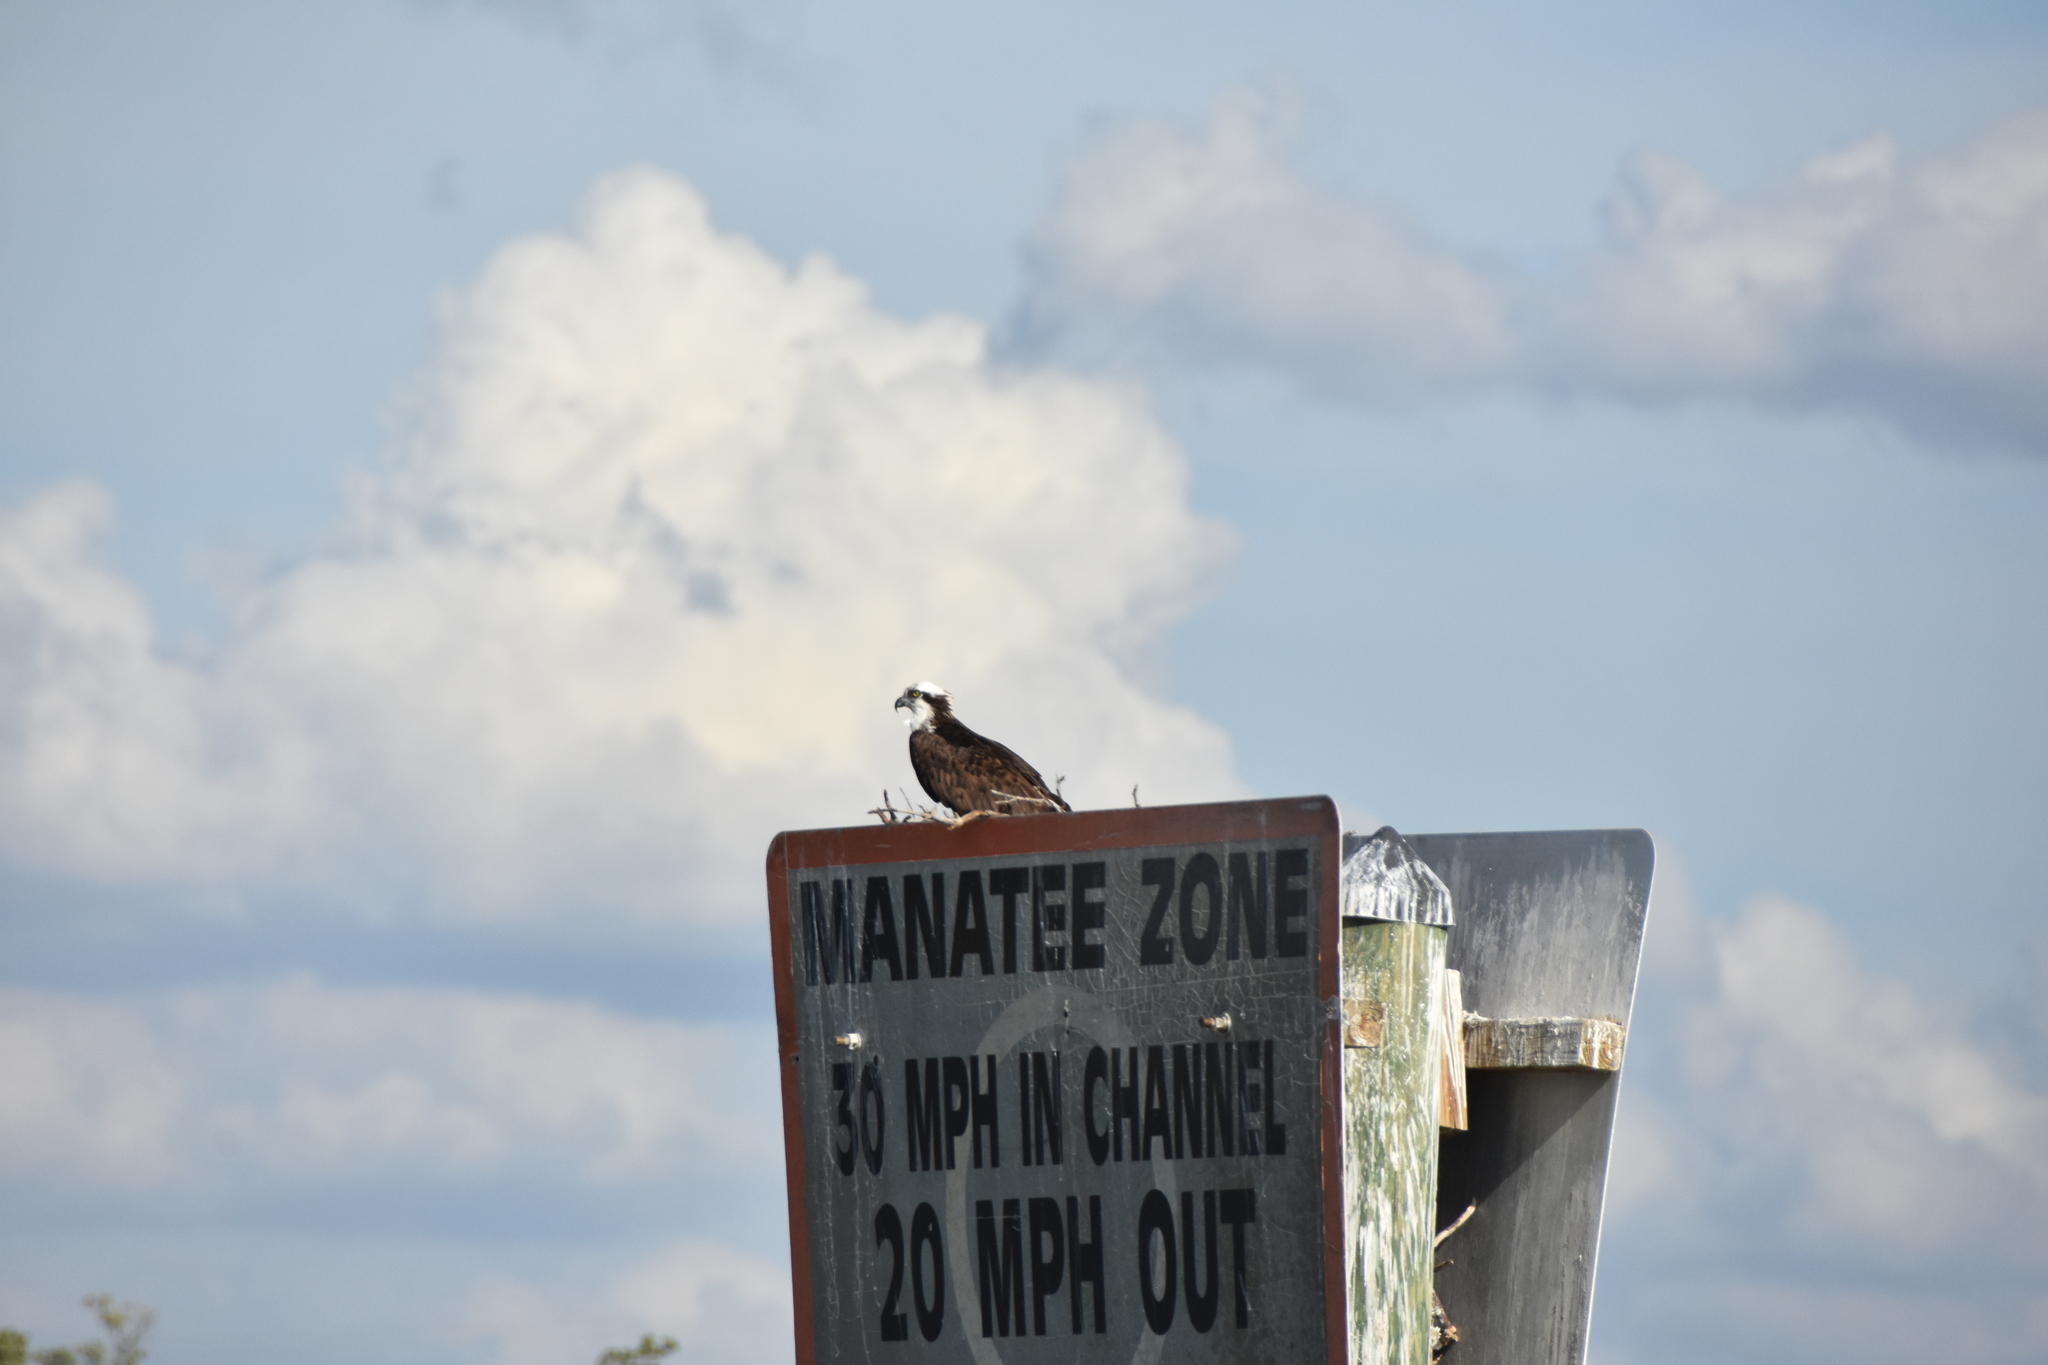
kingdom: Animalia
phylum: Chordata
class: Aves
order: Accipitriformes
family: Pandionidae
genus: Pandion
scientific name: Pandion haliaetus
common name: Osprey
